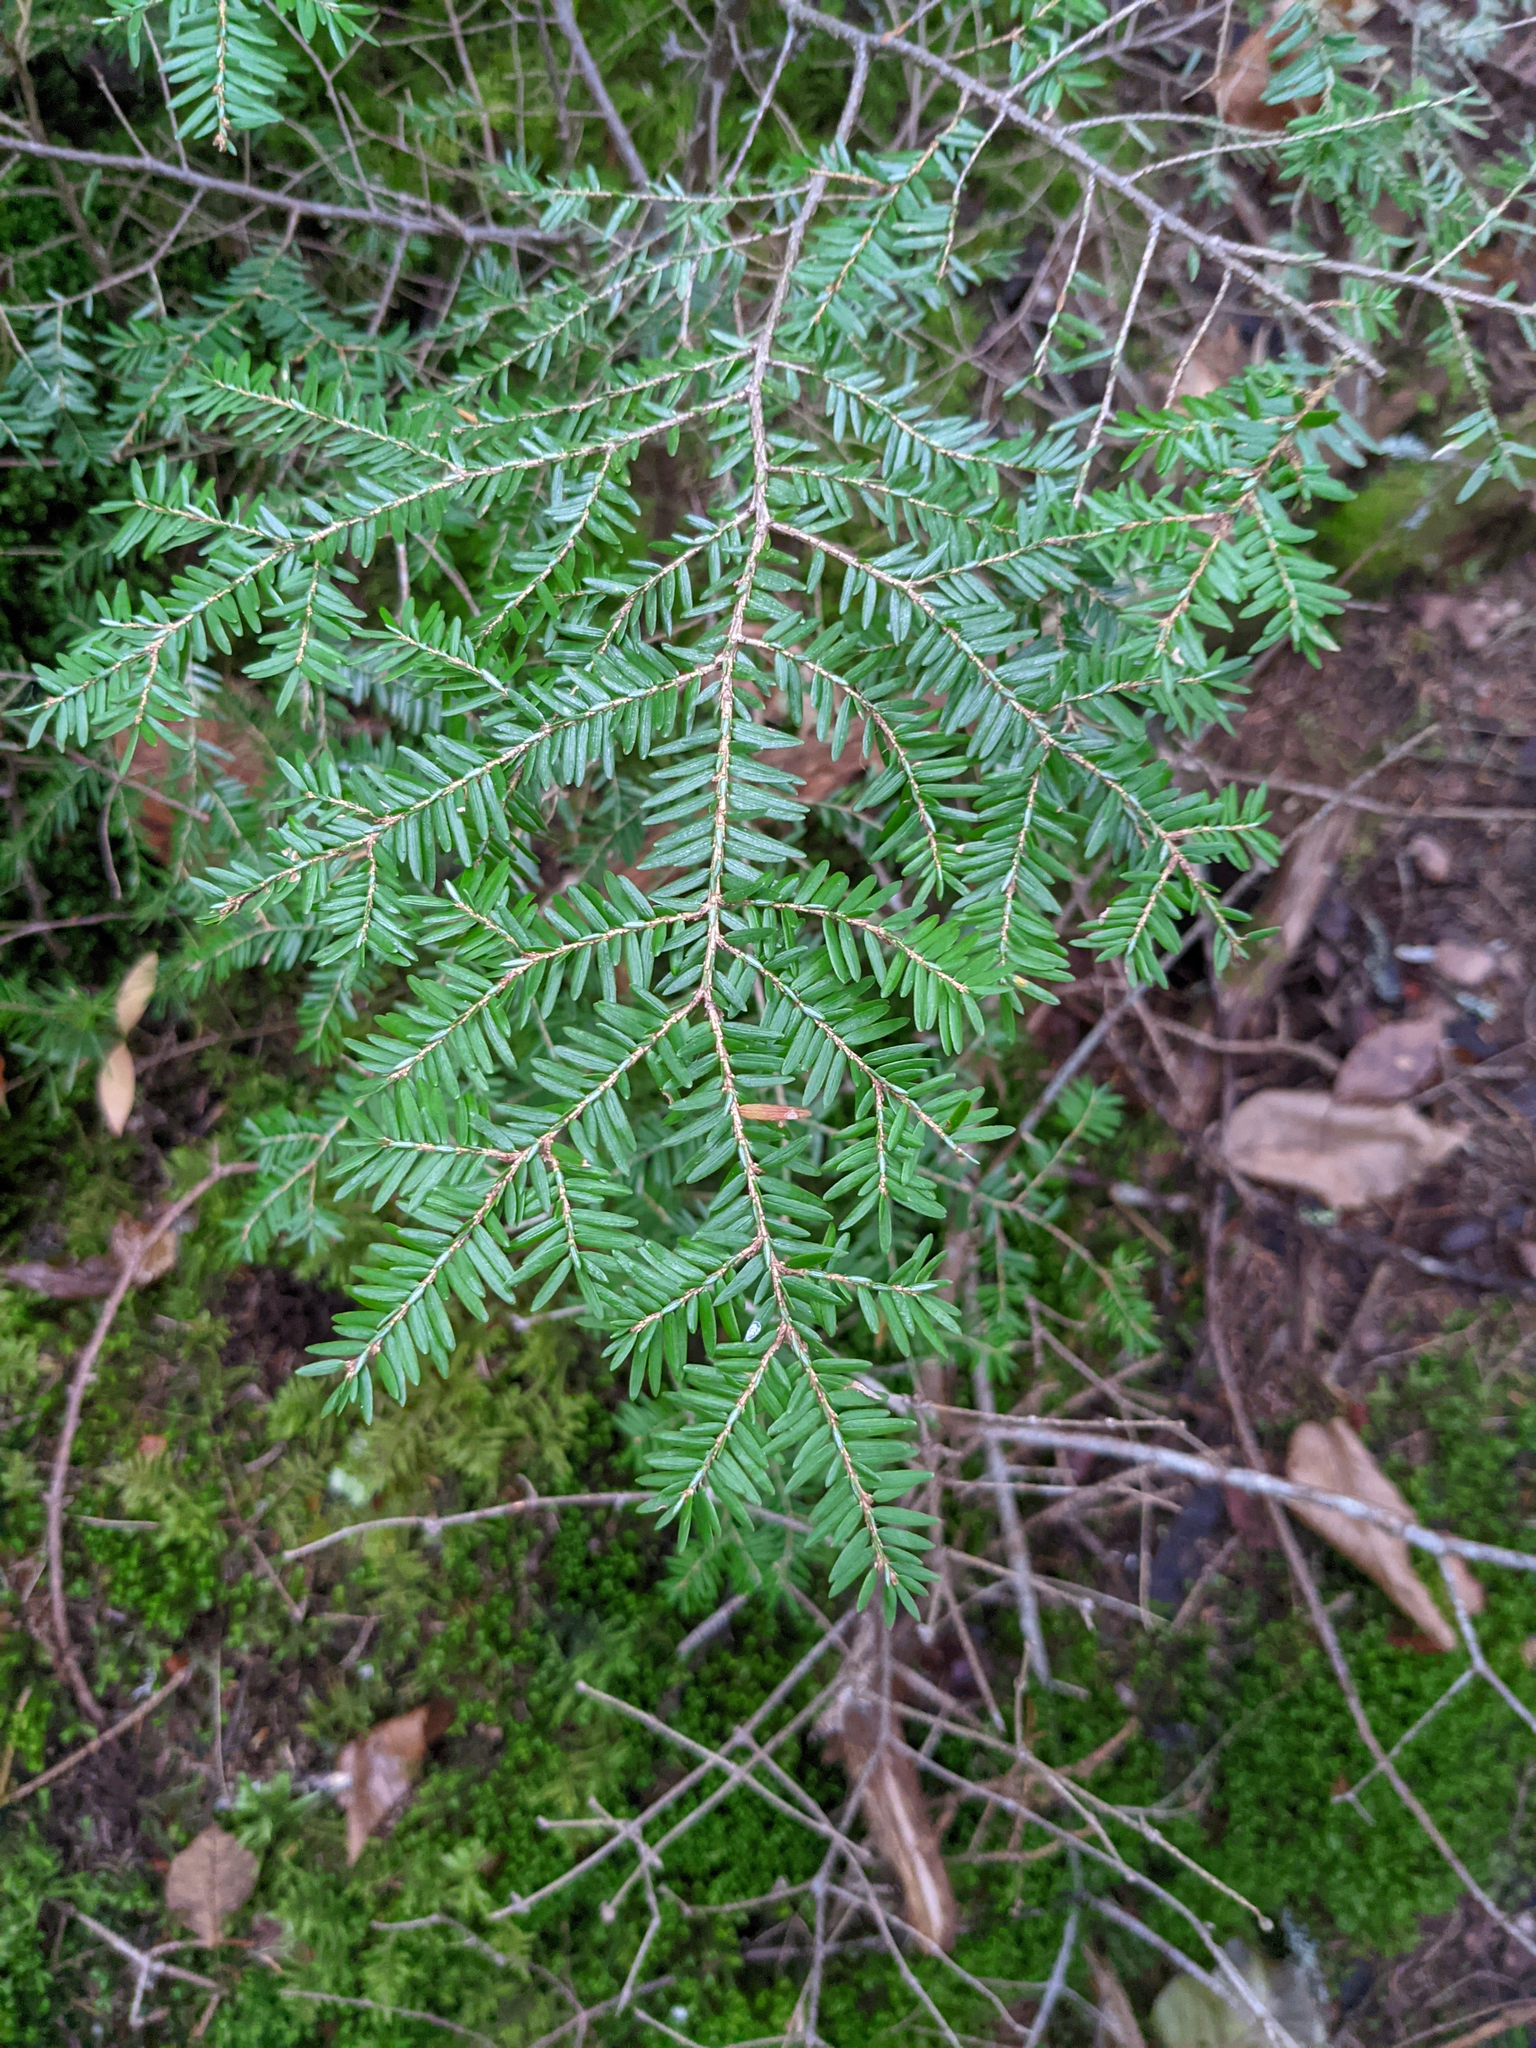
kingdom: Plantae
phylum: Tracheophyta
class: Pinopsida
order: Pinales
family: Pinaceae
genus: Tsuga
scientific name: Tsuga canadensis
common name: Eastern hemlock
